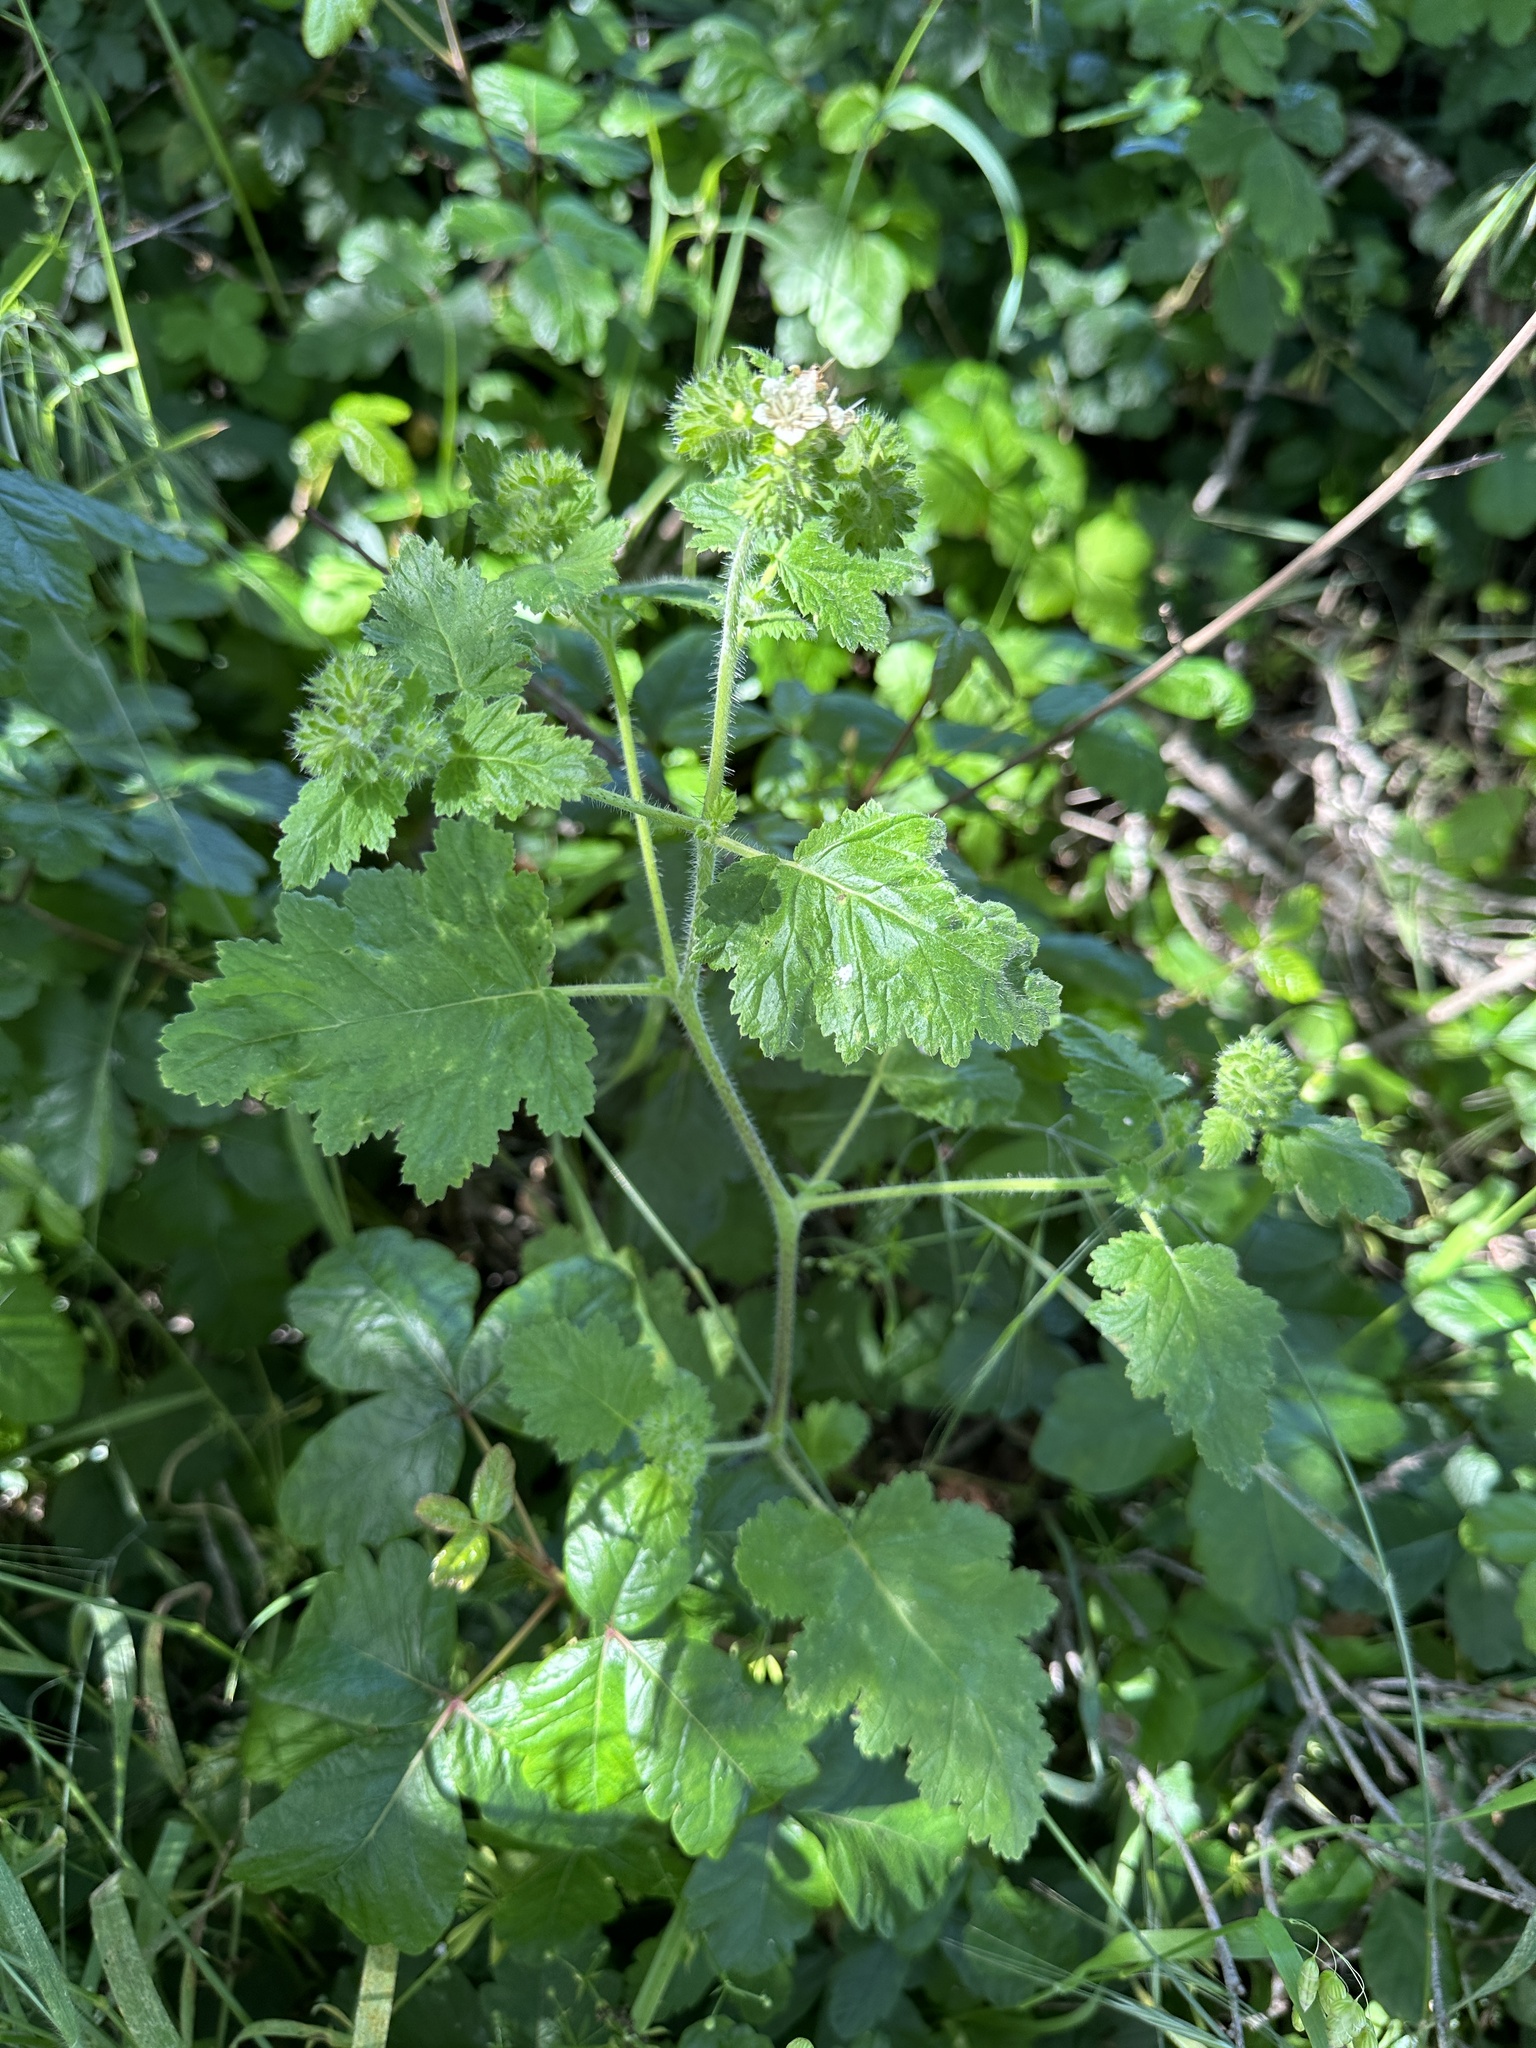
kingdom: Plantae
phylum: Tracheophyta
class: Magnoliopsida
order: Boraginales
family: Hydrophyllaceae
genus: Phacelia
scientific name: Phacelia malvifolia
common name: Mallow-leaf phacelia
